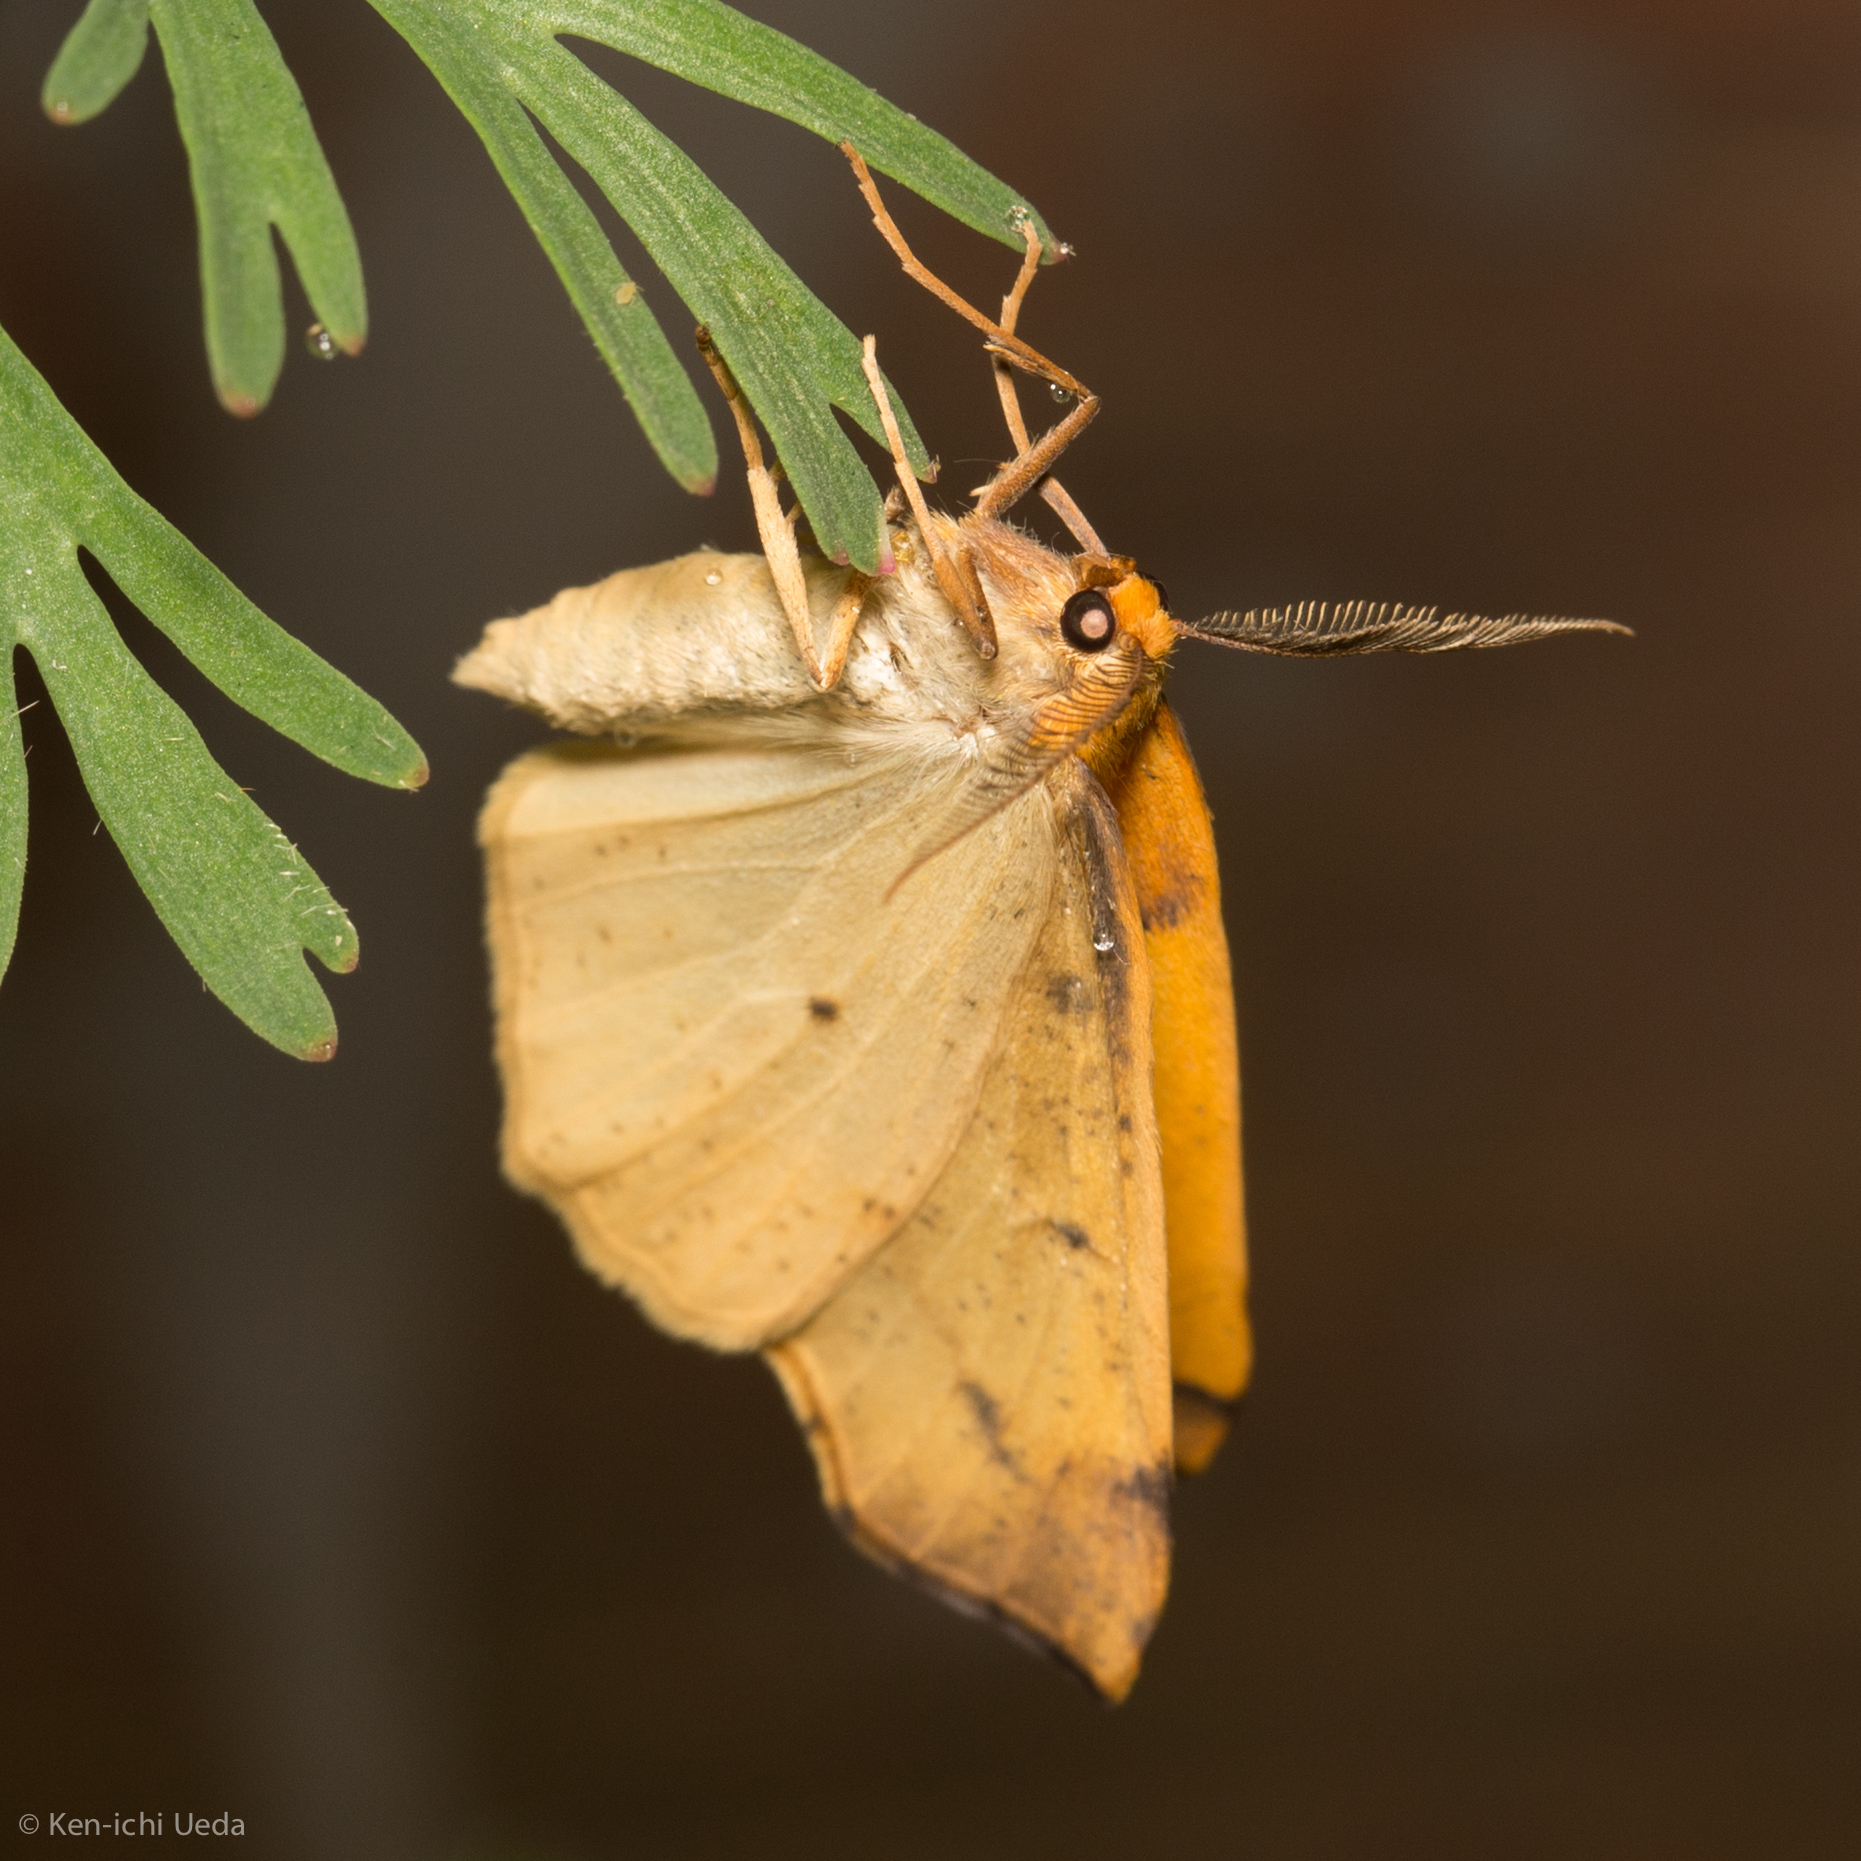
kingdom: Animalia
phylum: Arthropoda
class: Insecta
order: Lepidoptera
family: Geometridae
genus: Neoterpes
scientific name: Neoterpes edwardsata
